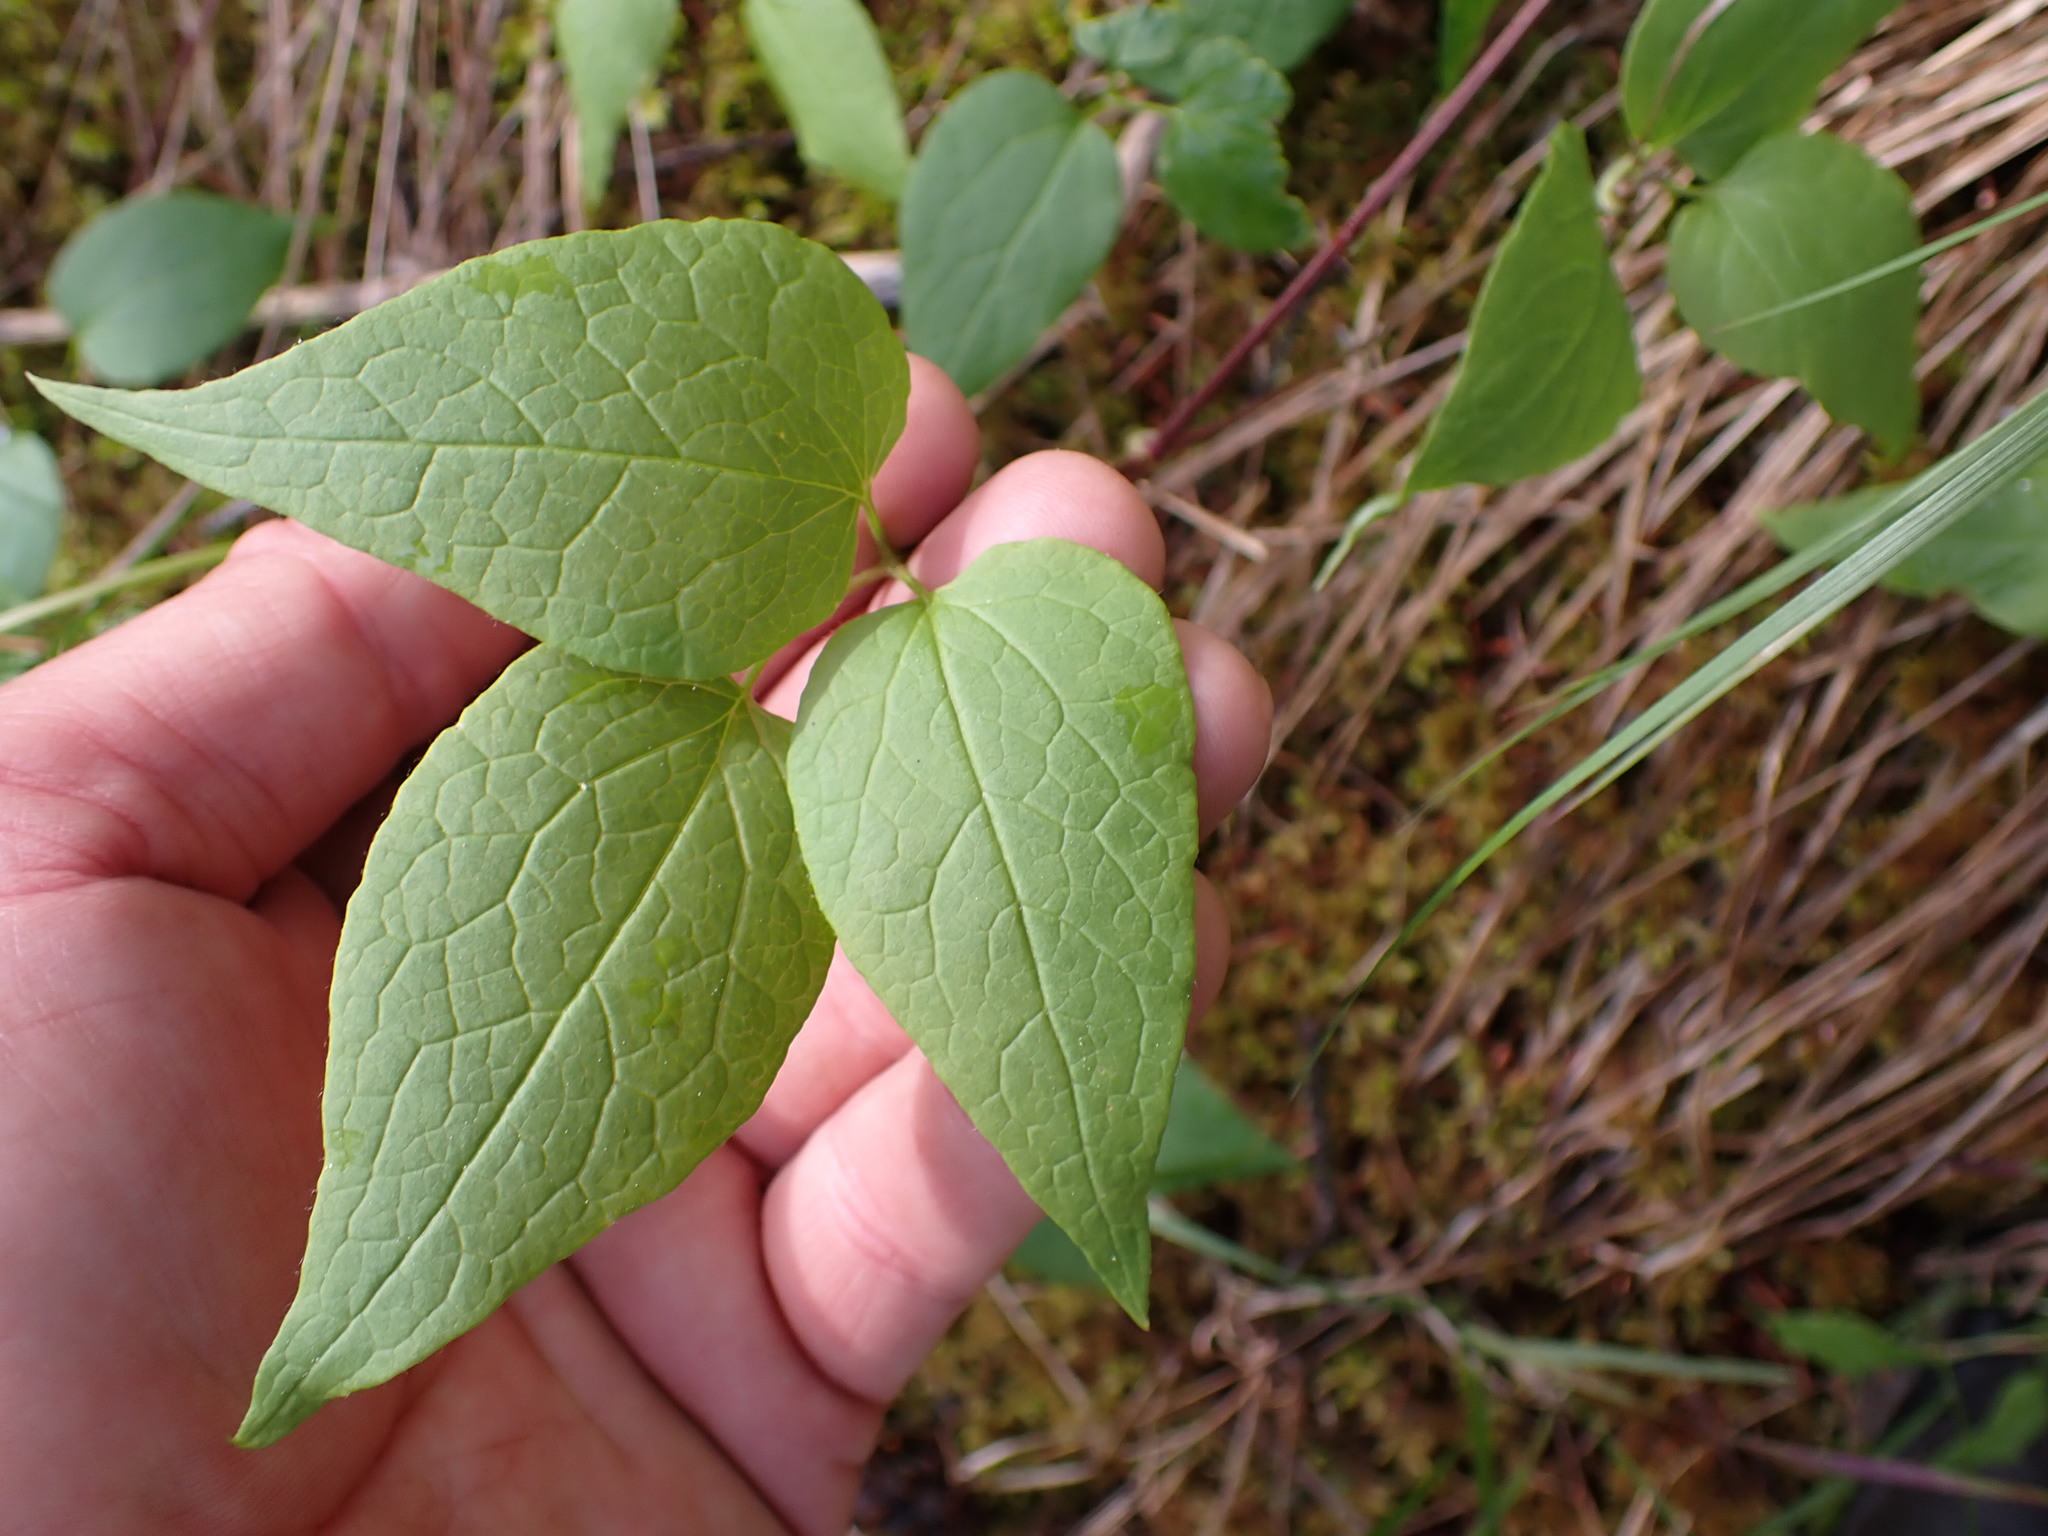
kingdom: Plantae
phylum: Tracheophyta
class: Magnoliopsida
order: Ranunculales
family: Ranunculaceae
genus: Clematis
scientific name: Clematis occidentalis
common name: Purple clematis
